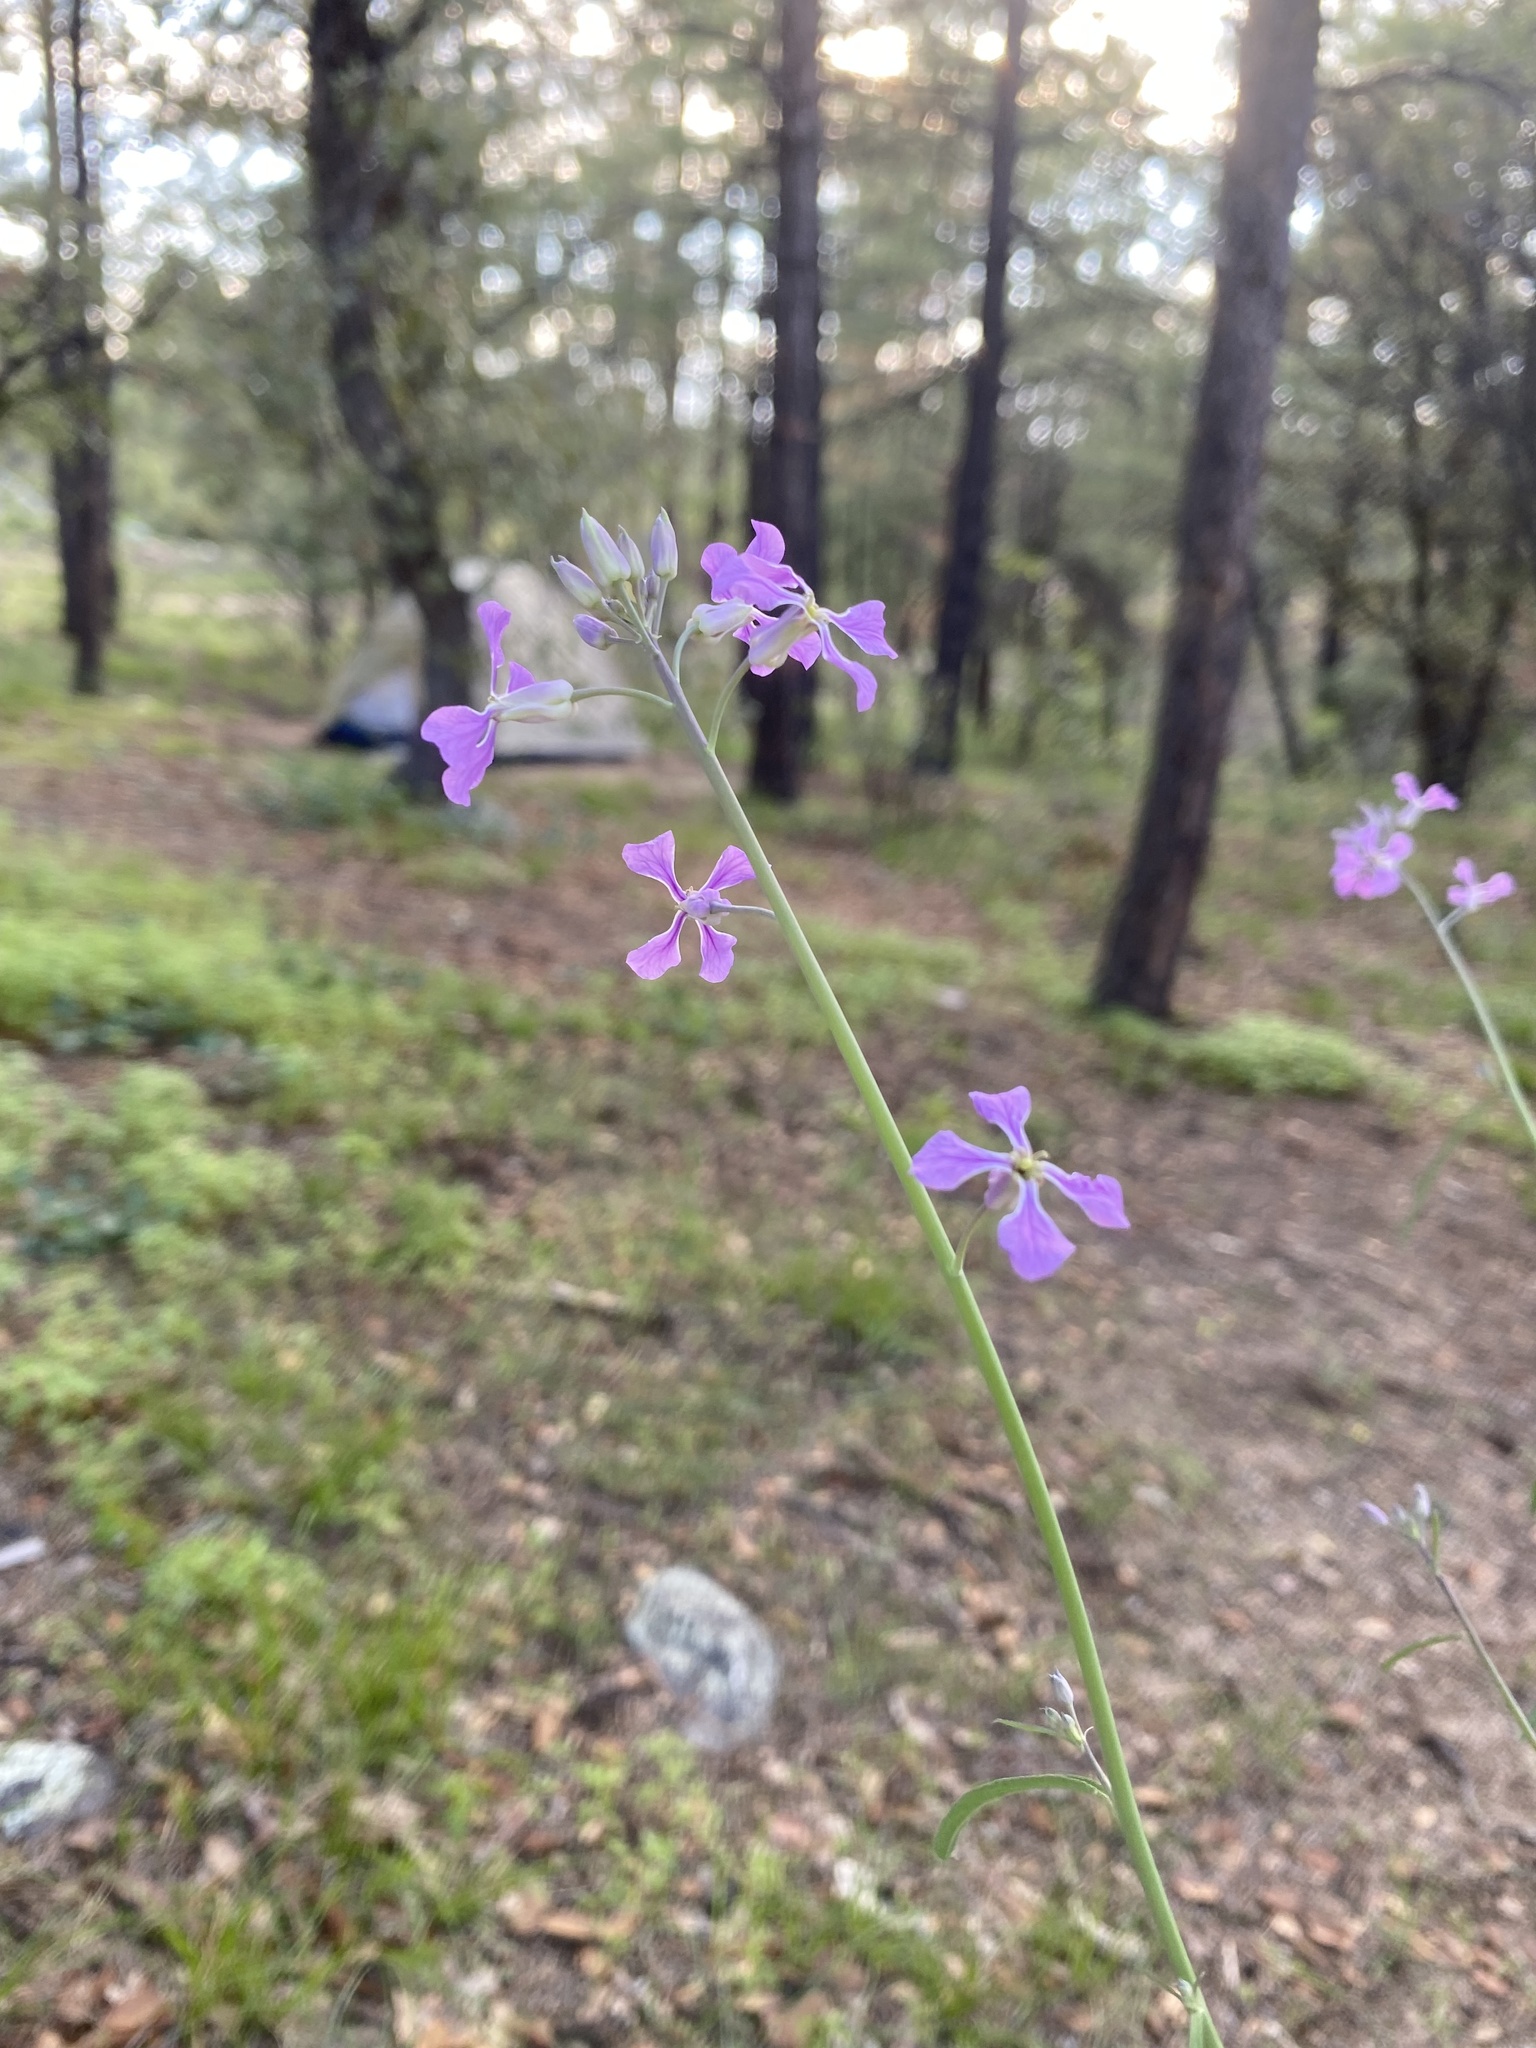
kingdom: Plantae
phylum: Tracheophyta
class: Magnoliopsida
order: Brassicales
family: Brassicaceae
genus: Hesperidanthus
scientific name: Hesperidanthus linearifolius
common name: Slim-leaf plains mustard
